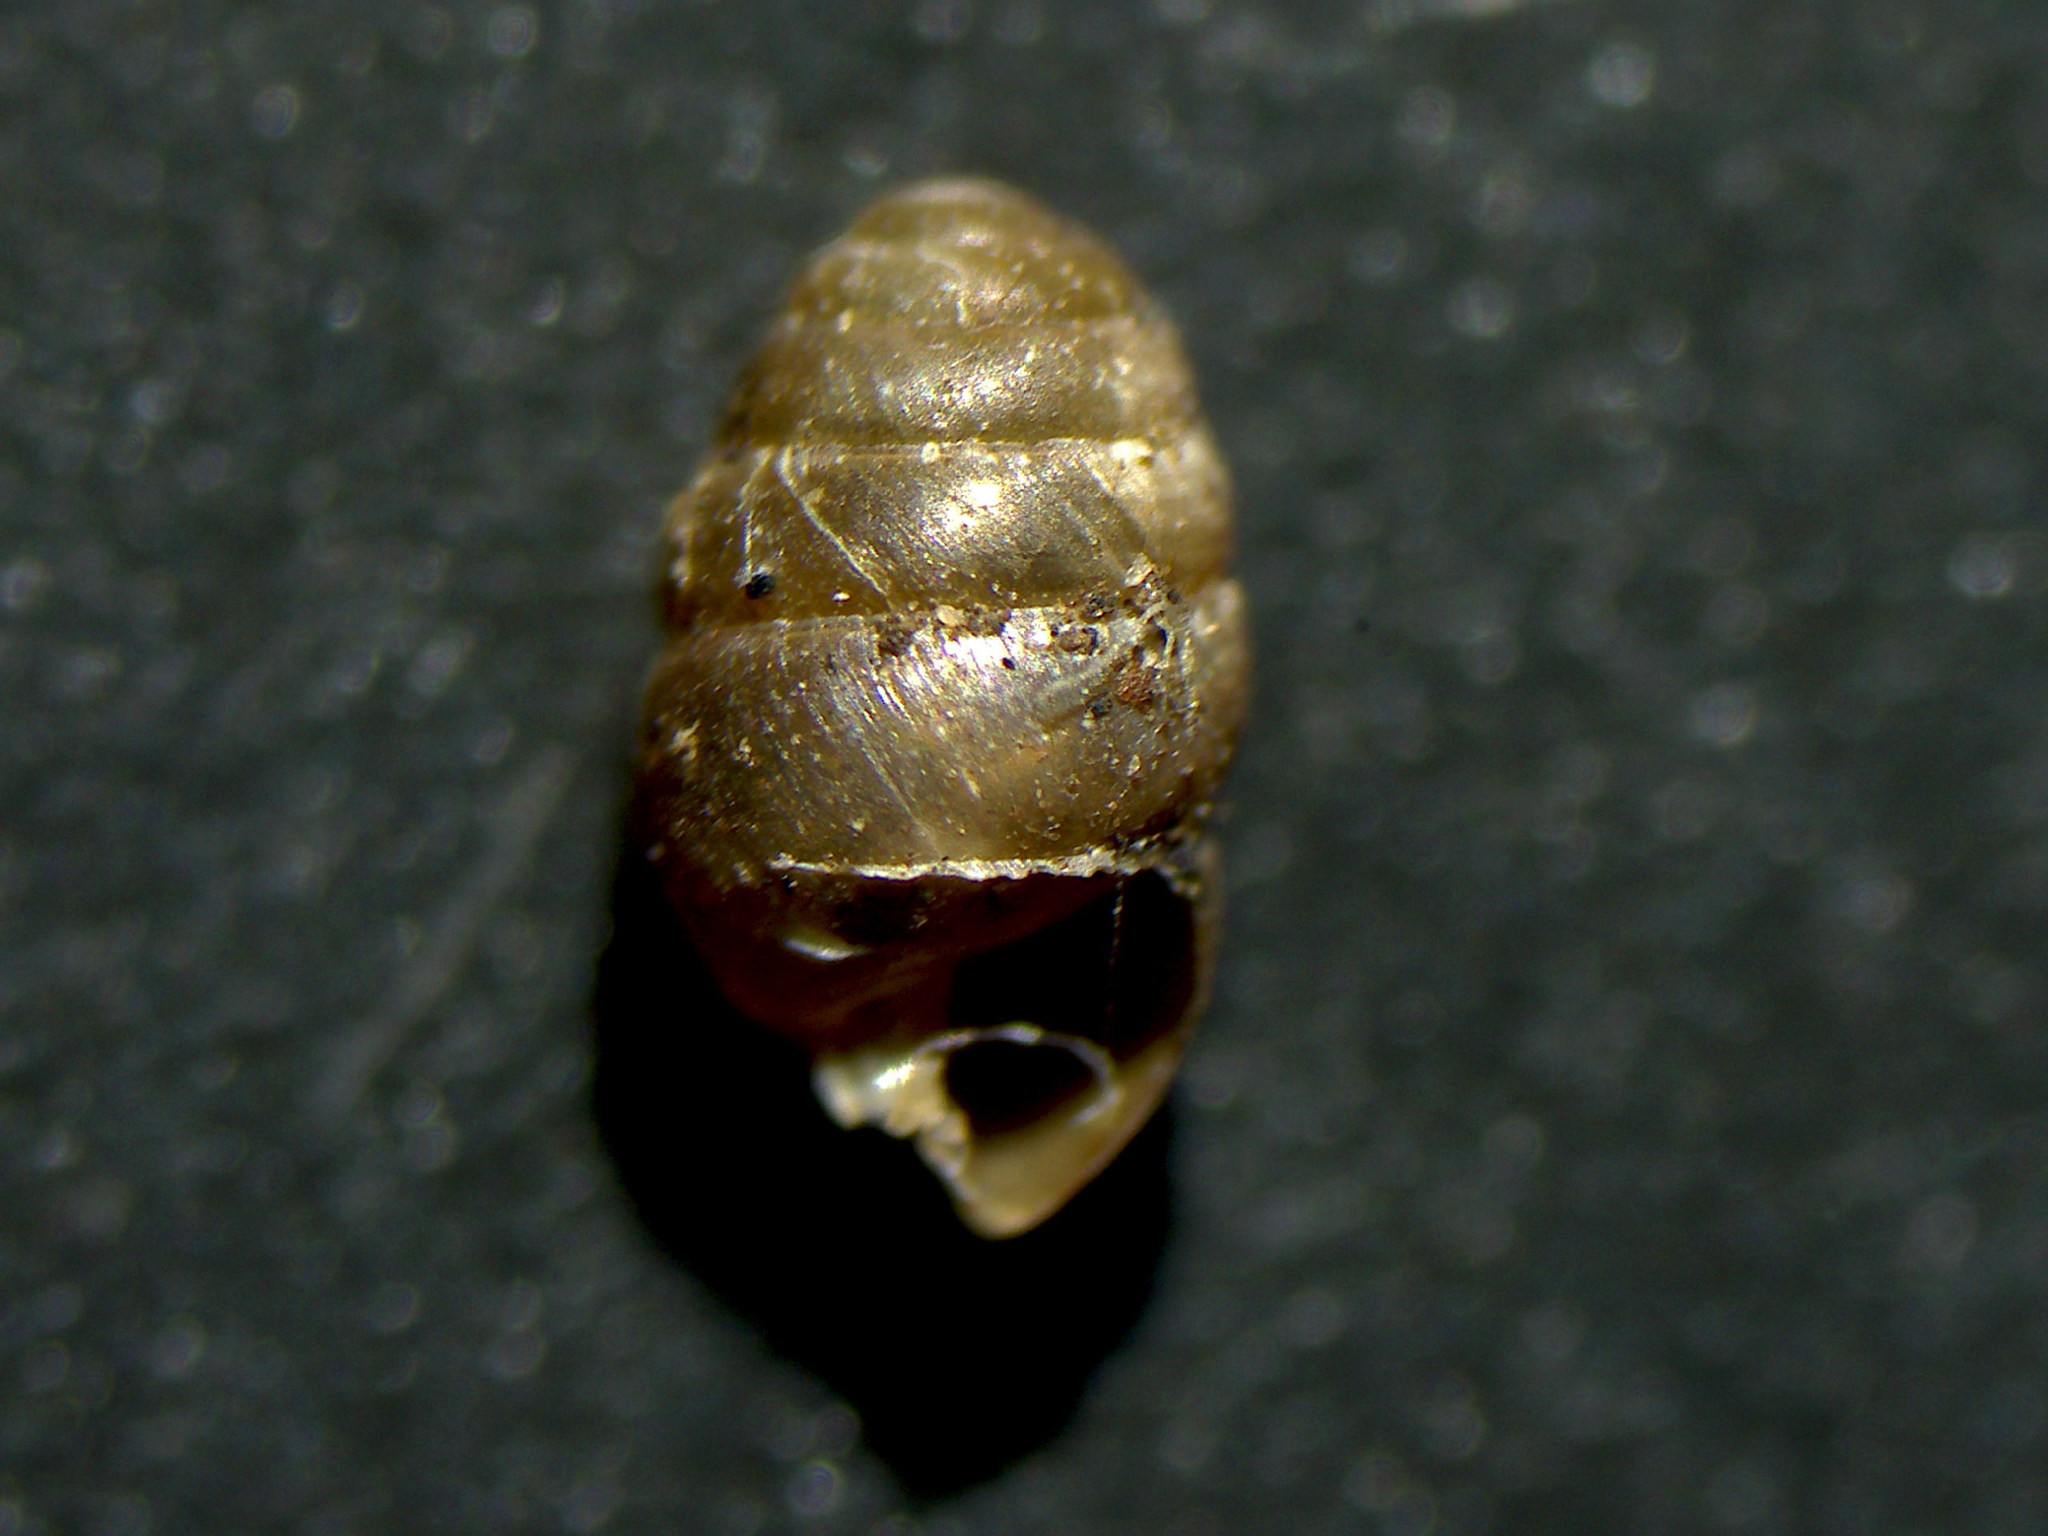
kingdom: Animalia
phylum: Mollusca
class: Gastropoda
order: Stylommatophora
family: Lauriidae
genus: Lauria
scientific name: Lauria cylindracea
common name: Common chrysalis snail
